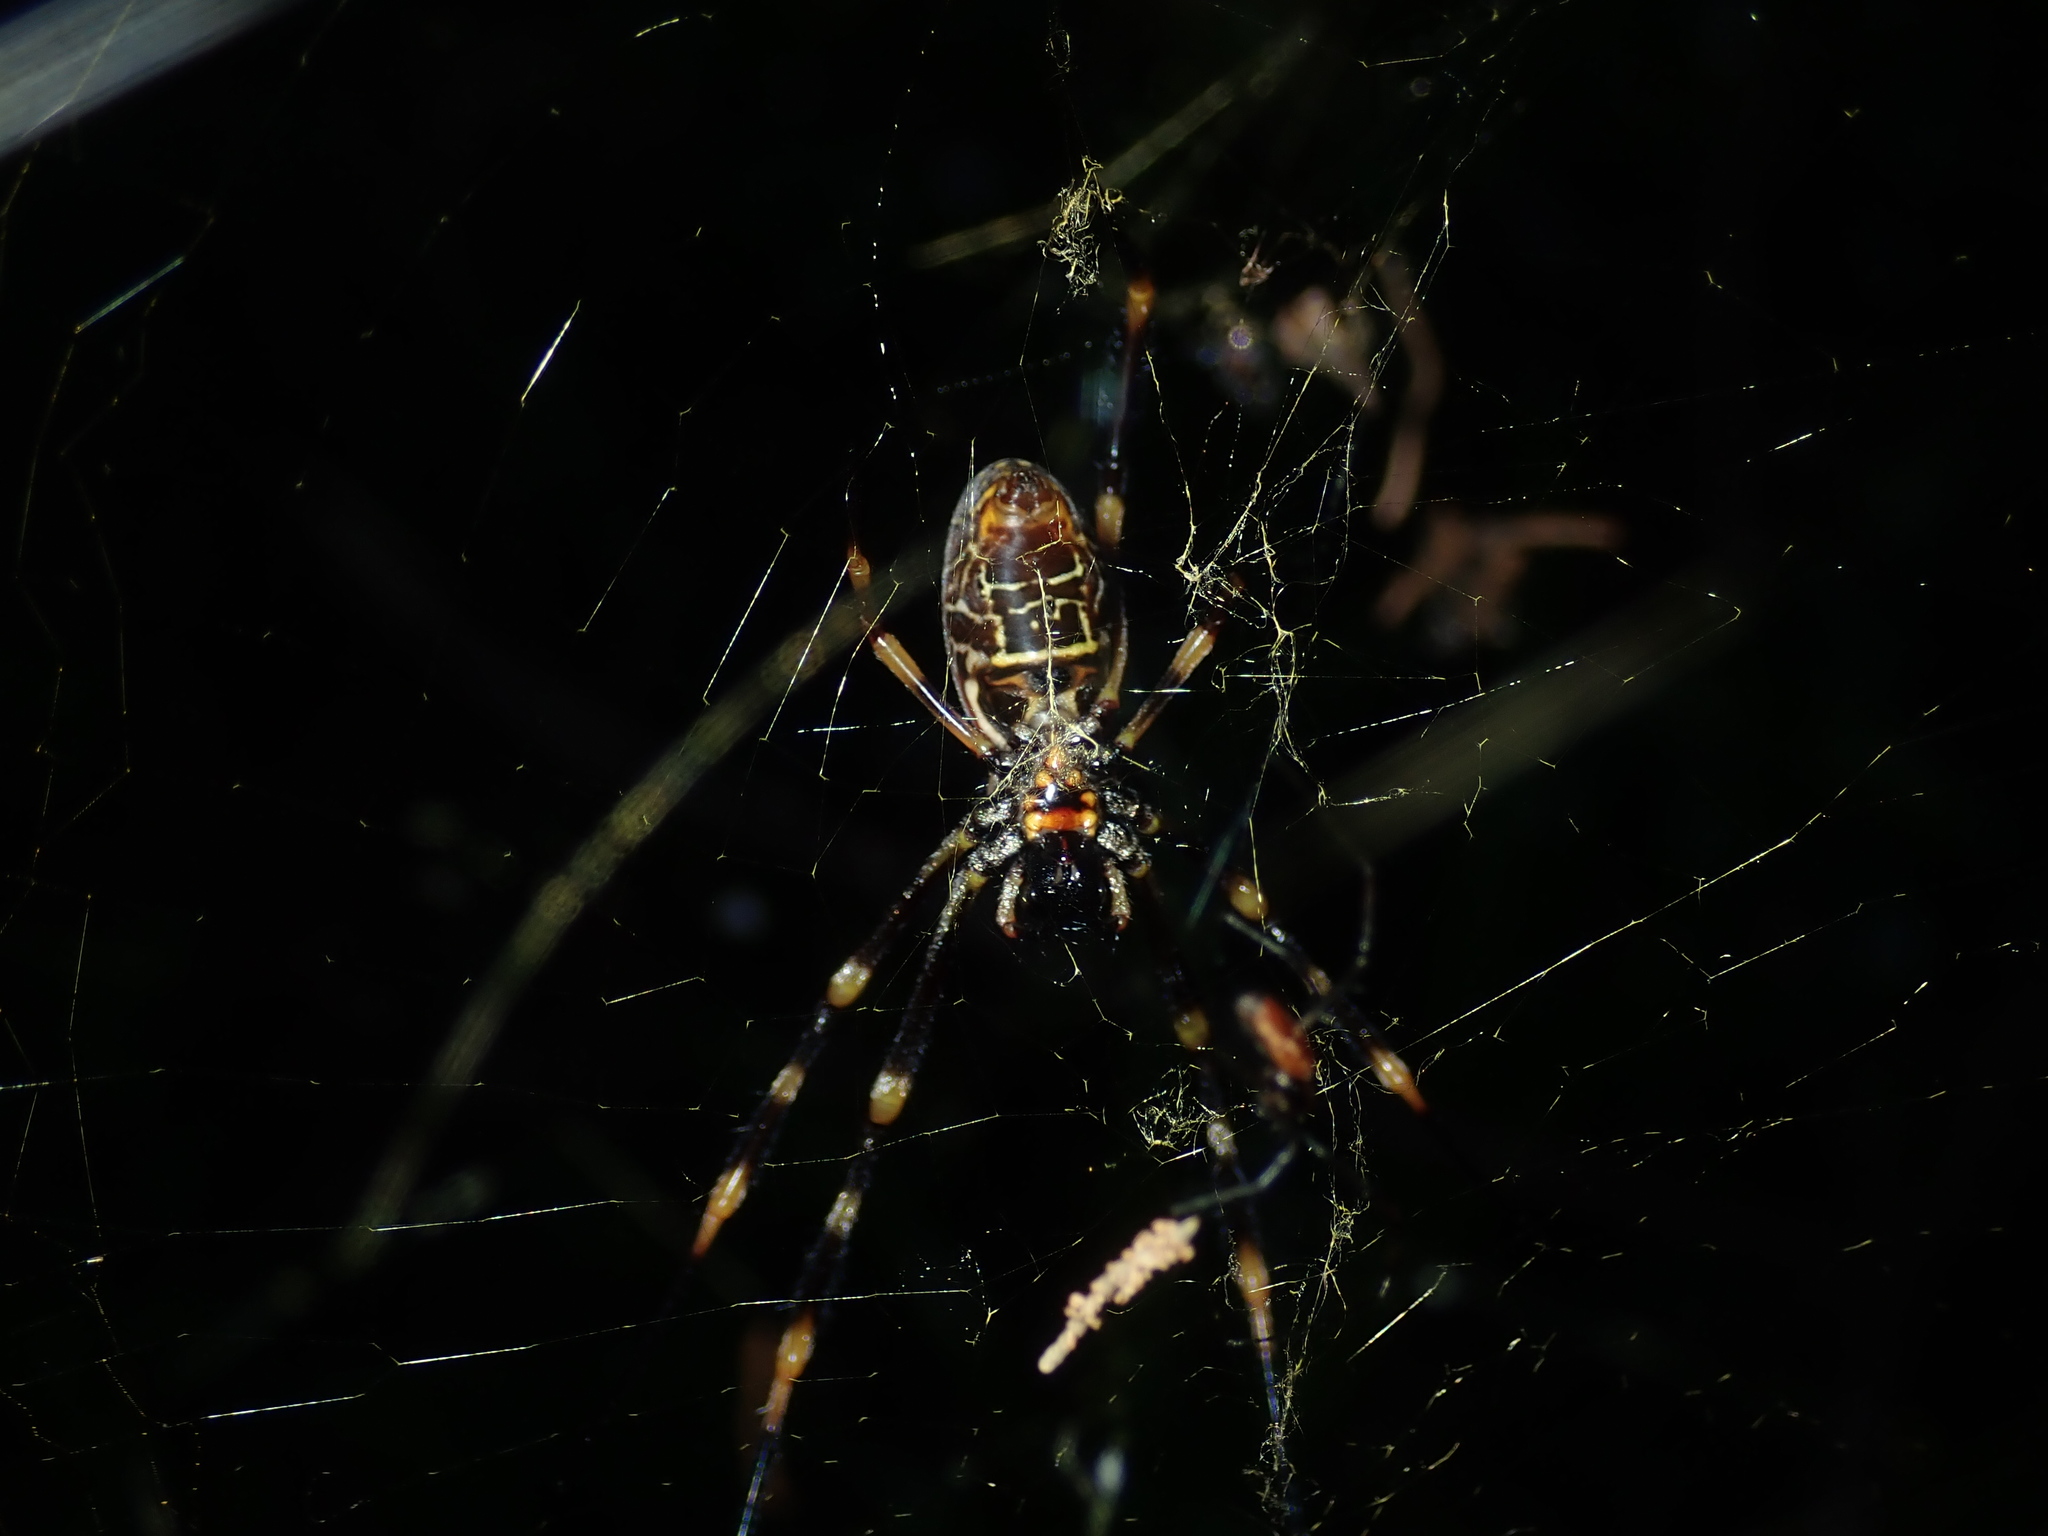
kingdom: Animalia
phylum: Arthropoda
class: Arachnida
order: Araneae
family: Araneidae
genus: Trichonephila
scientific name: Trichonephila plumipes
